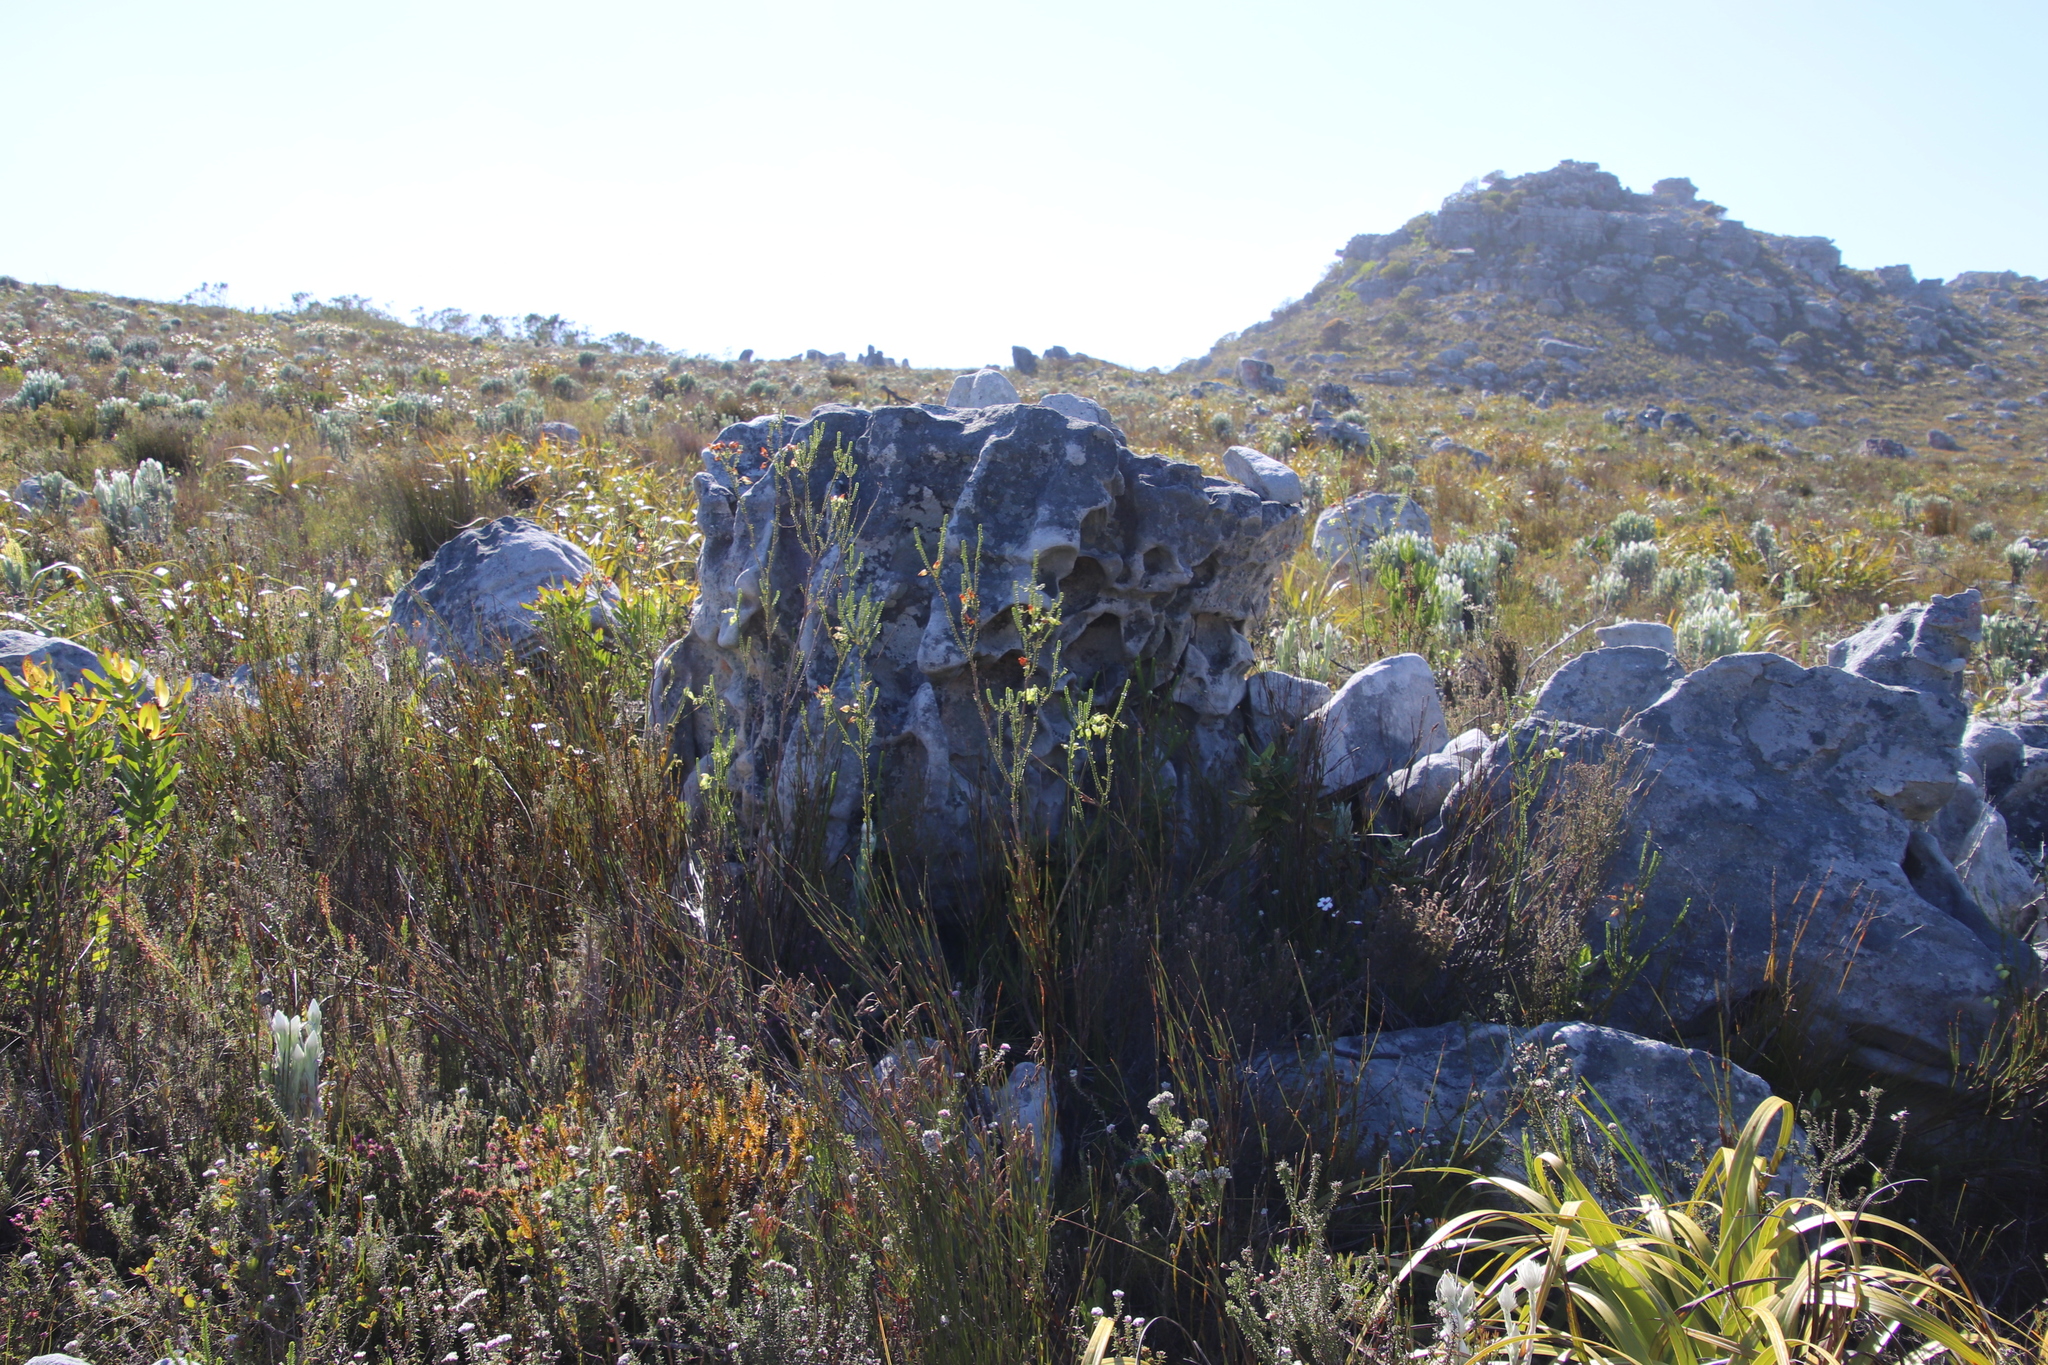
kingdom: Plantae
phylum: Tracheophyta
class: Magnoliopsida
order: Ericales
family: Ericaceae
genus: Erica
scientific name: Erica urna-viridis
